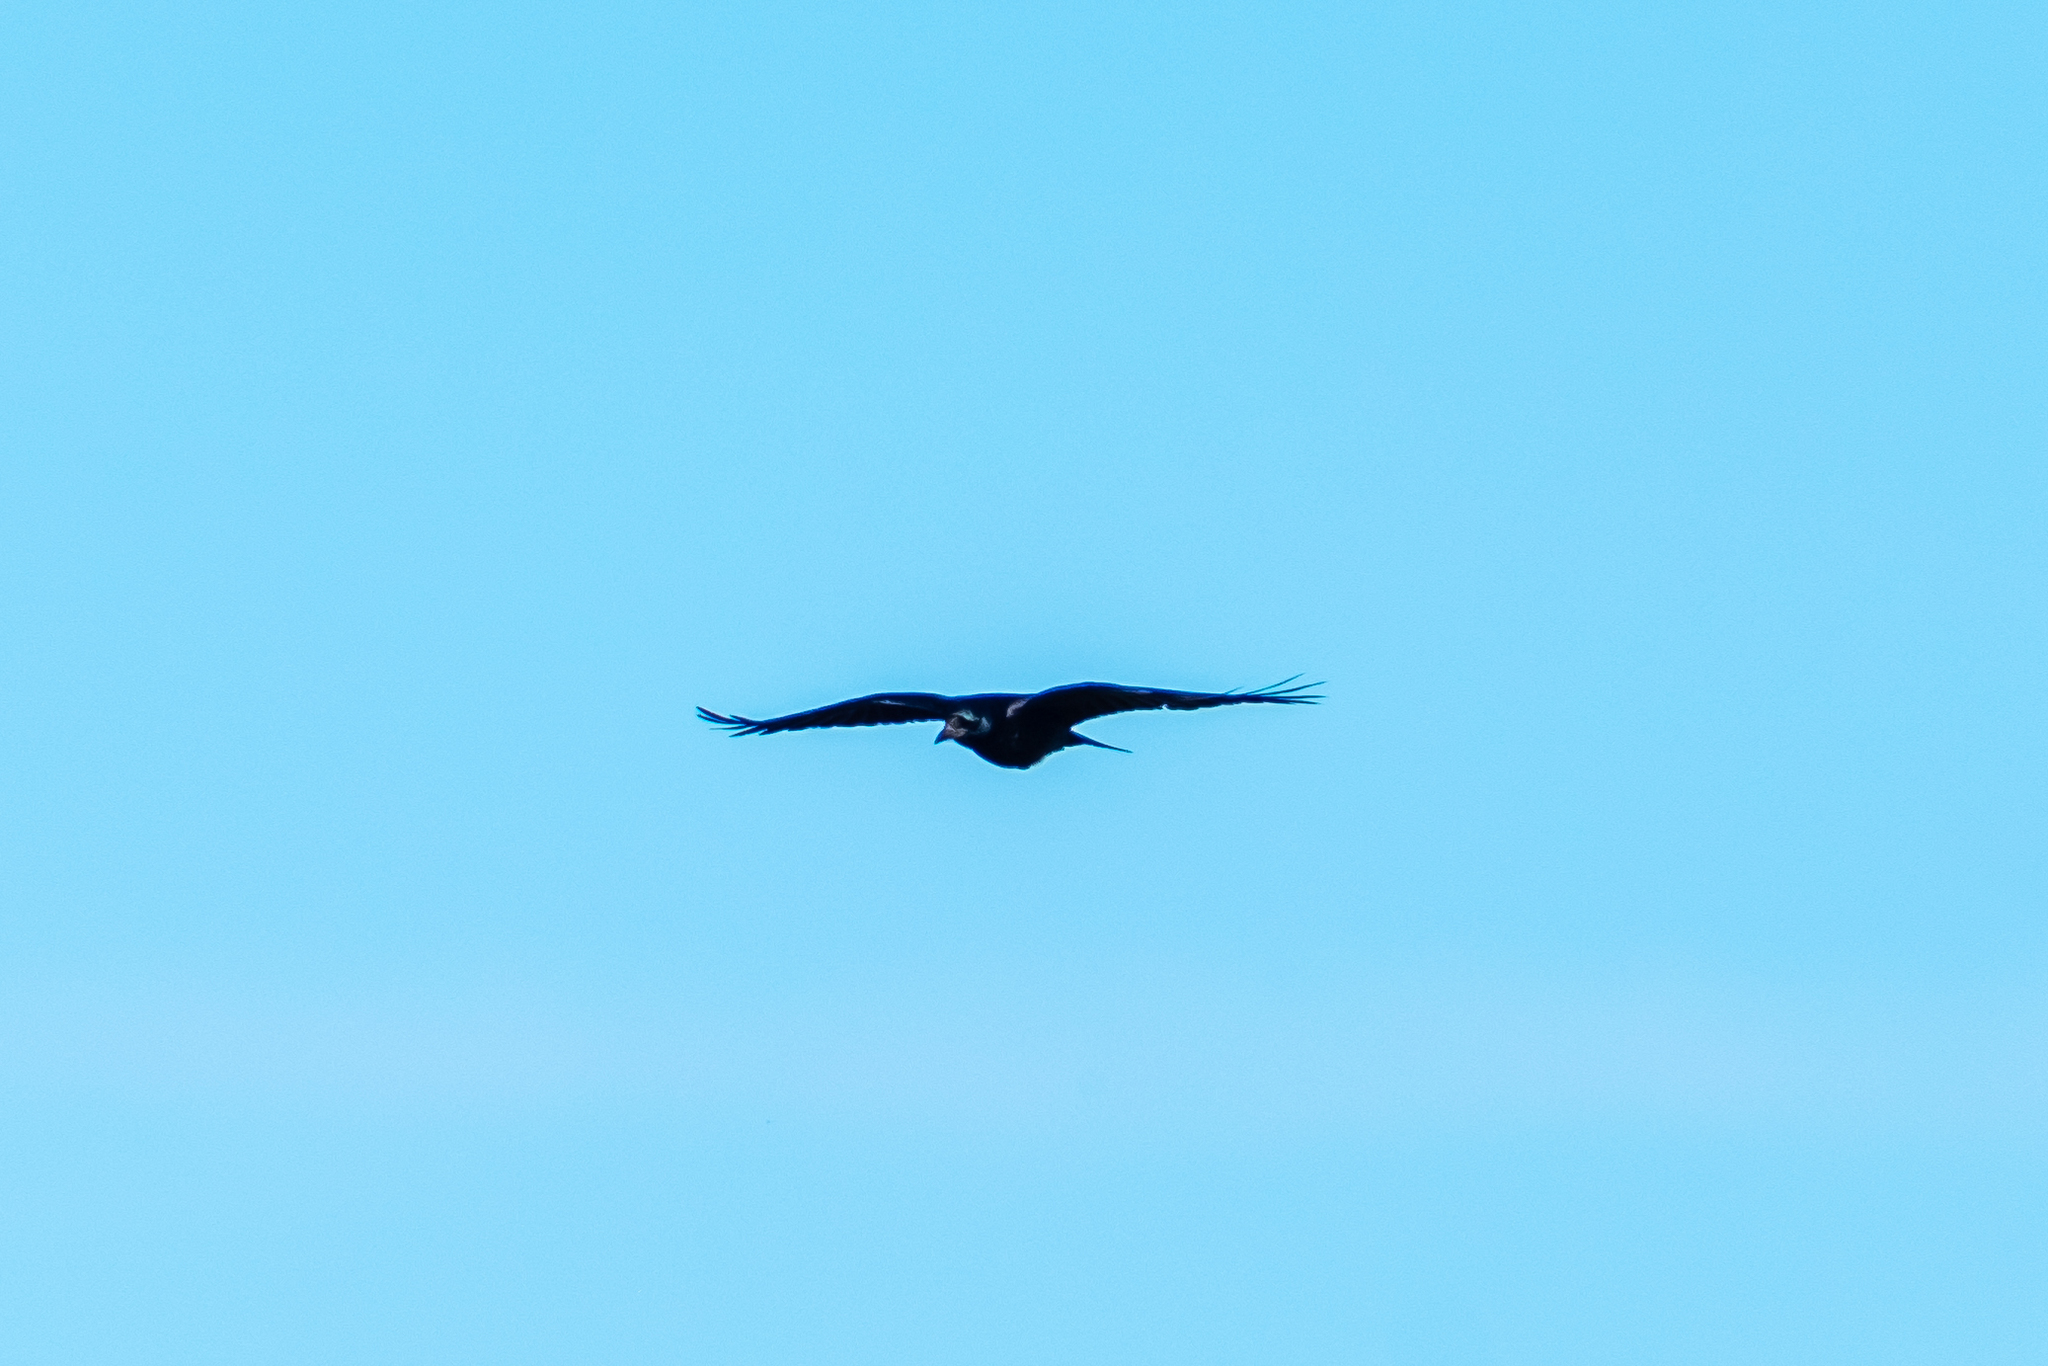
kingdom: Animalia
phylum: Chordata
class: Aves
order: Passeriformes
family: Corvidae
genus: Corvus
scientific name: Corvus frugilegus
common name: Rook
